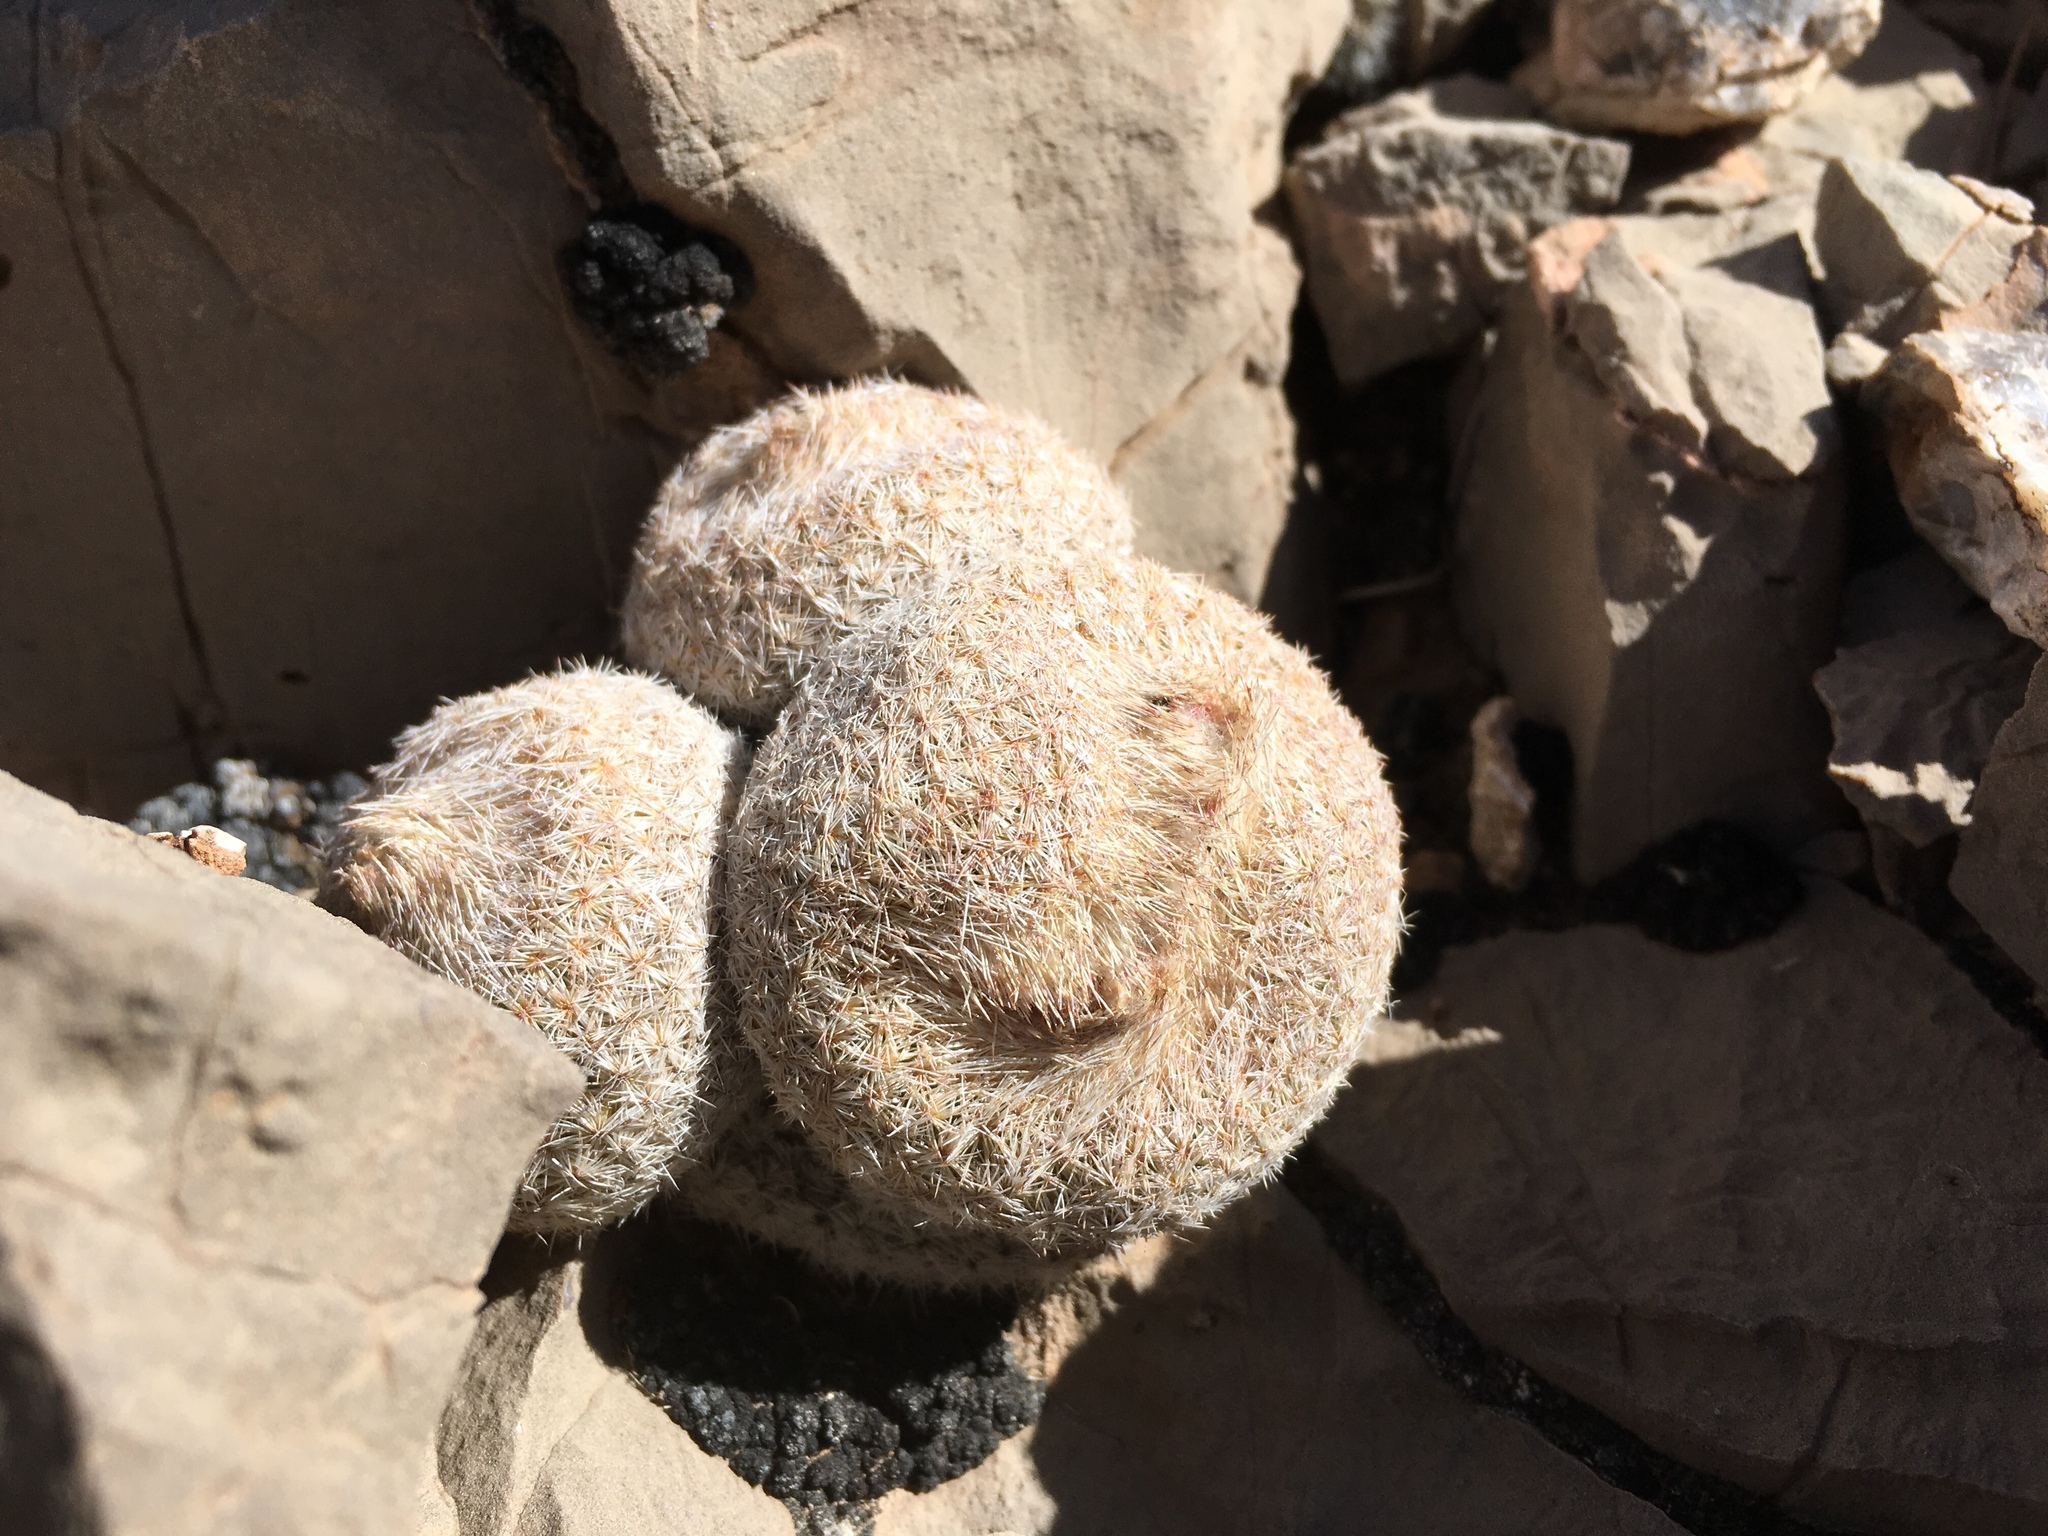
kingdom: Plantae
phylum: Tracheophyta
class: Magnoliopsida
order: Caryophyllales
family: Cactaceae
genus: Epithelantha
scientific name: Epithelantha micromeris
